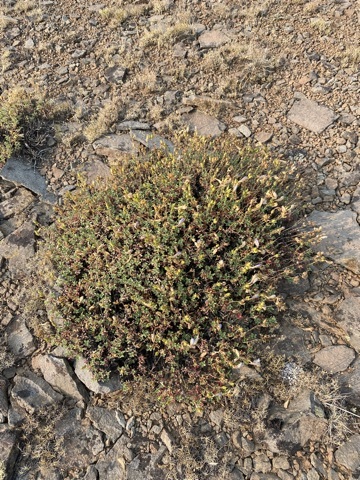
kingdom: Plantae
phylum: Tracheophyta
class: Magnoliopsida
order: Lamiales
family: Plantaginaceae
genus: Penstemon
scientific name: Penstemon davidsonii
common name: Davidson's penstemon
